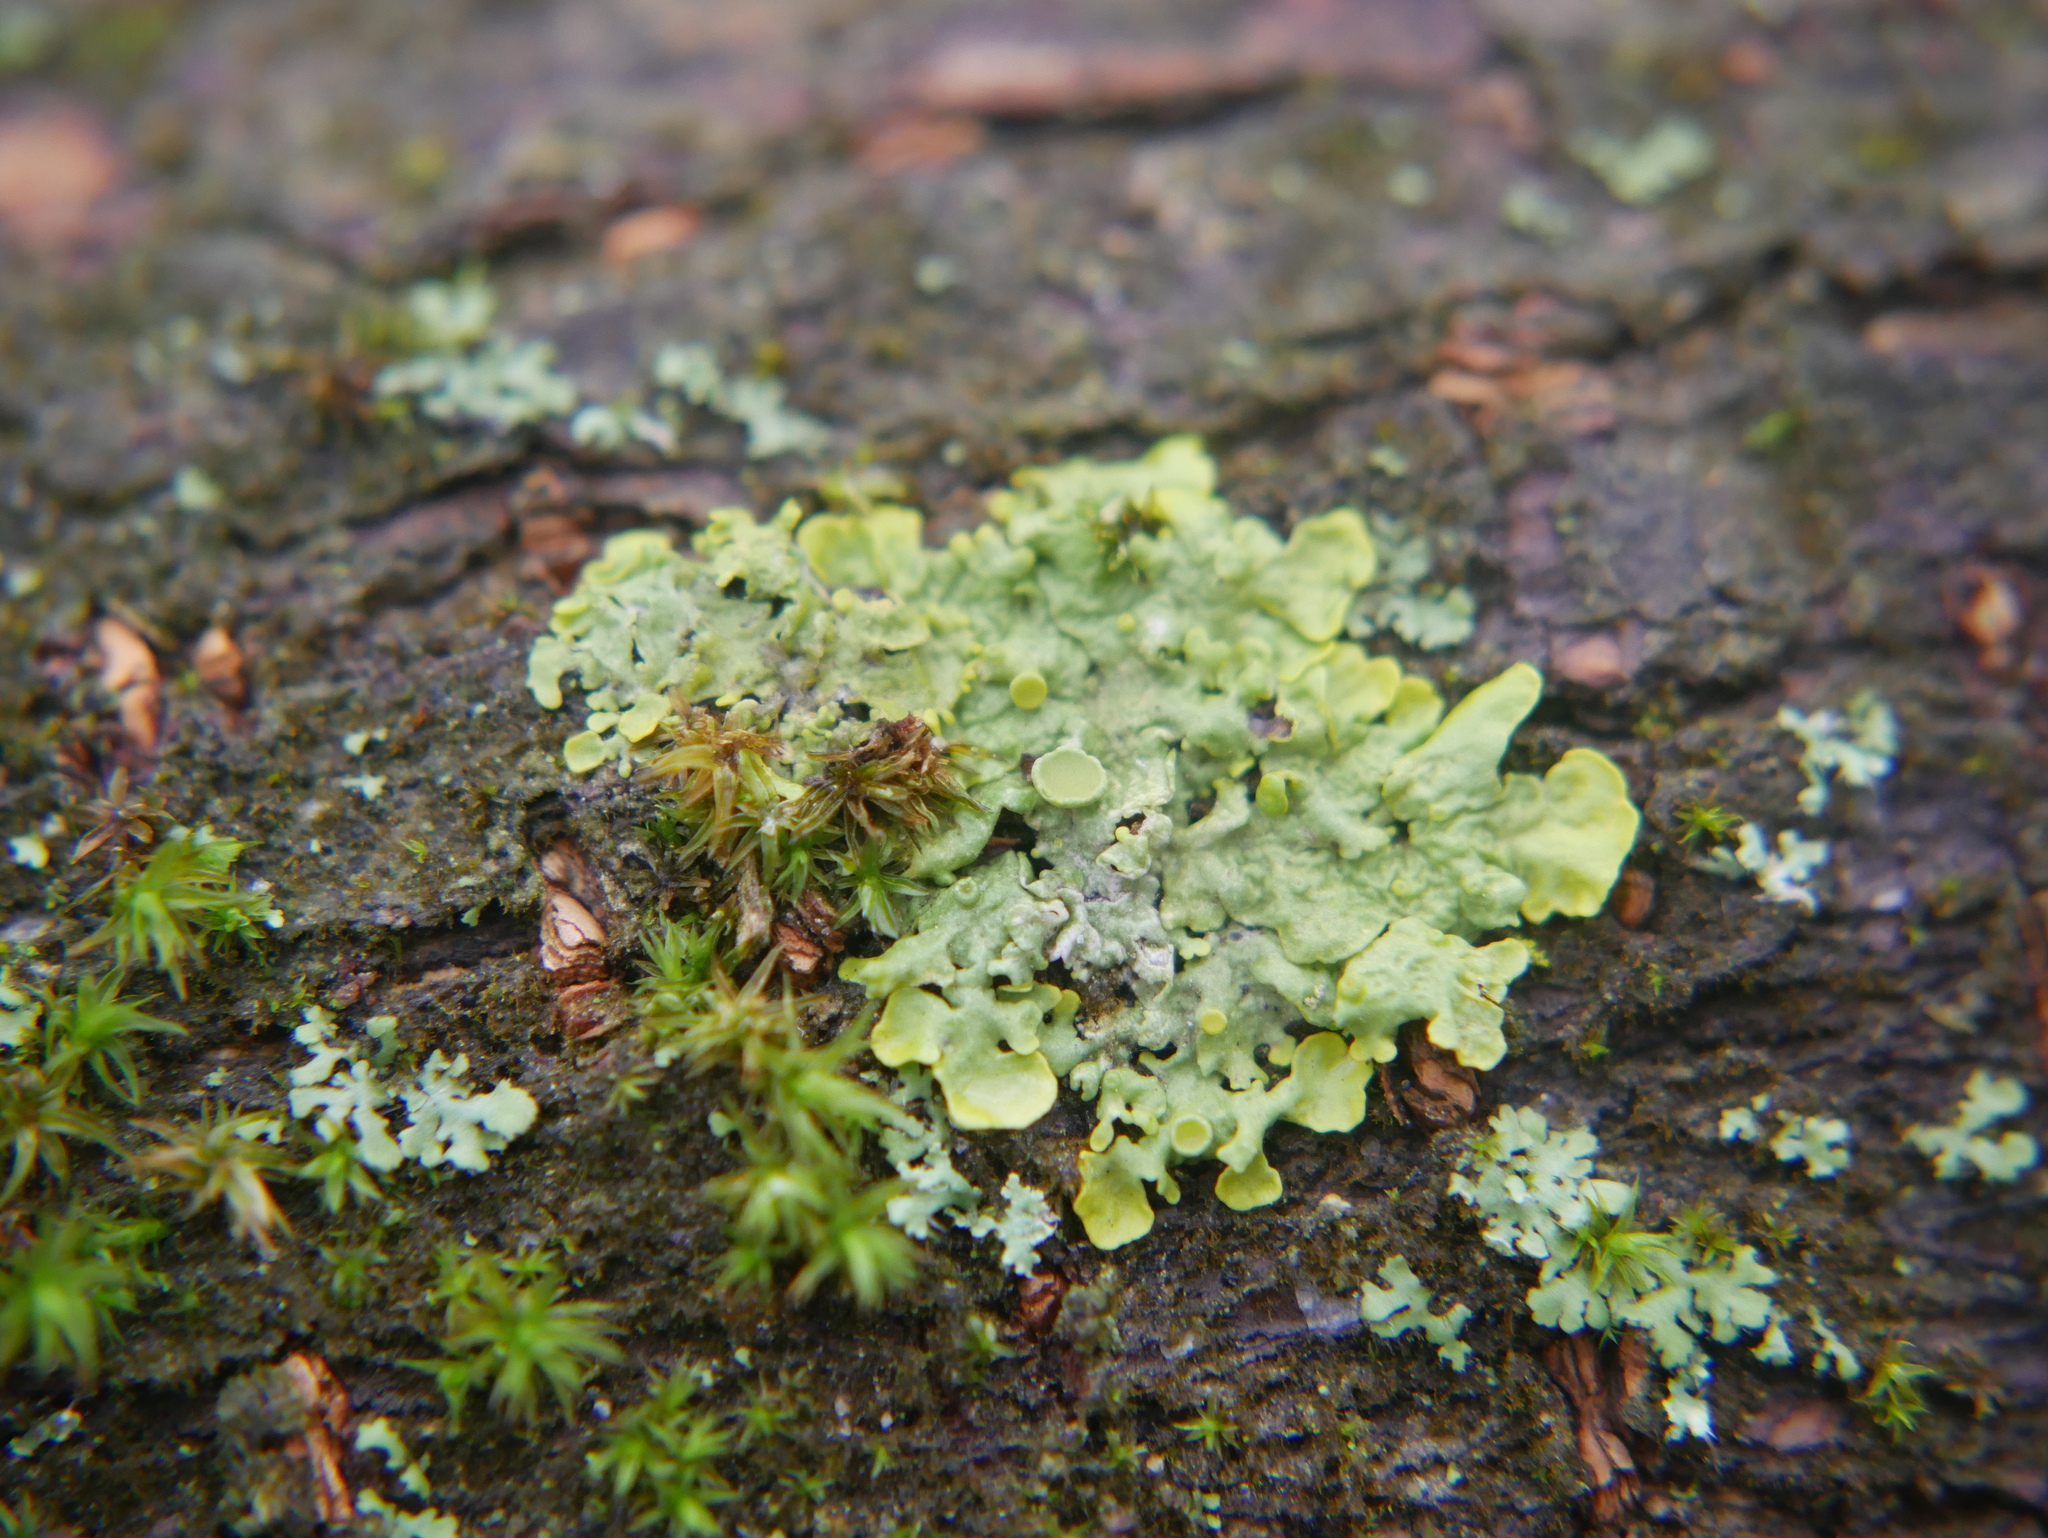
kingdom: Fungi
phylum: Ascomycota
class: Lecanoromycetes
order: Teloschistales
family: Teloschistaceae
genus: Xanthoria
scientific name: Xanthoria parietina
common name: Common orange lichen
